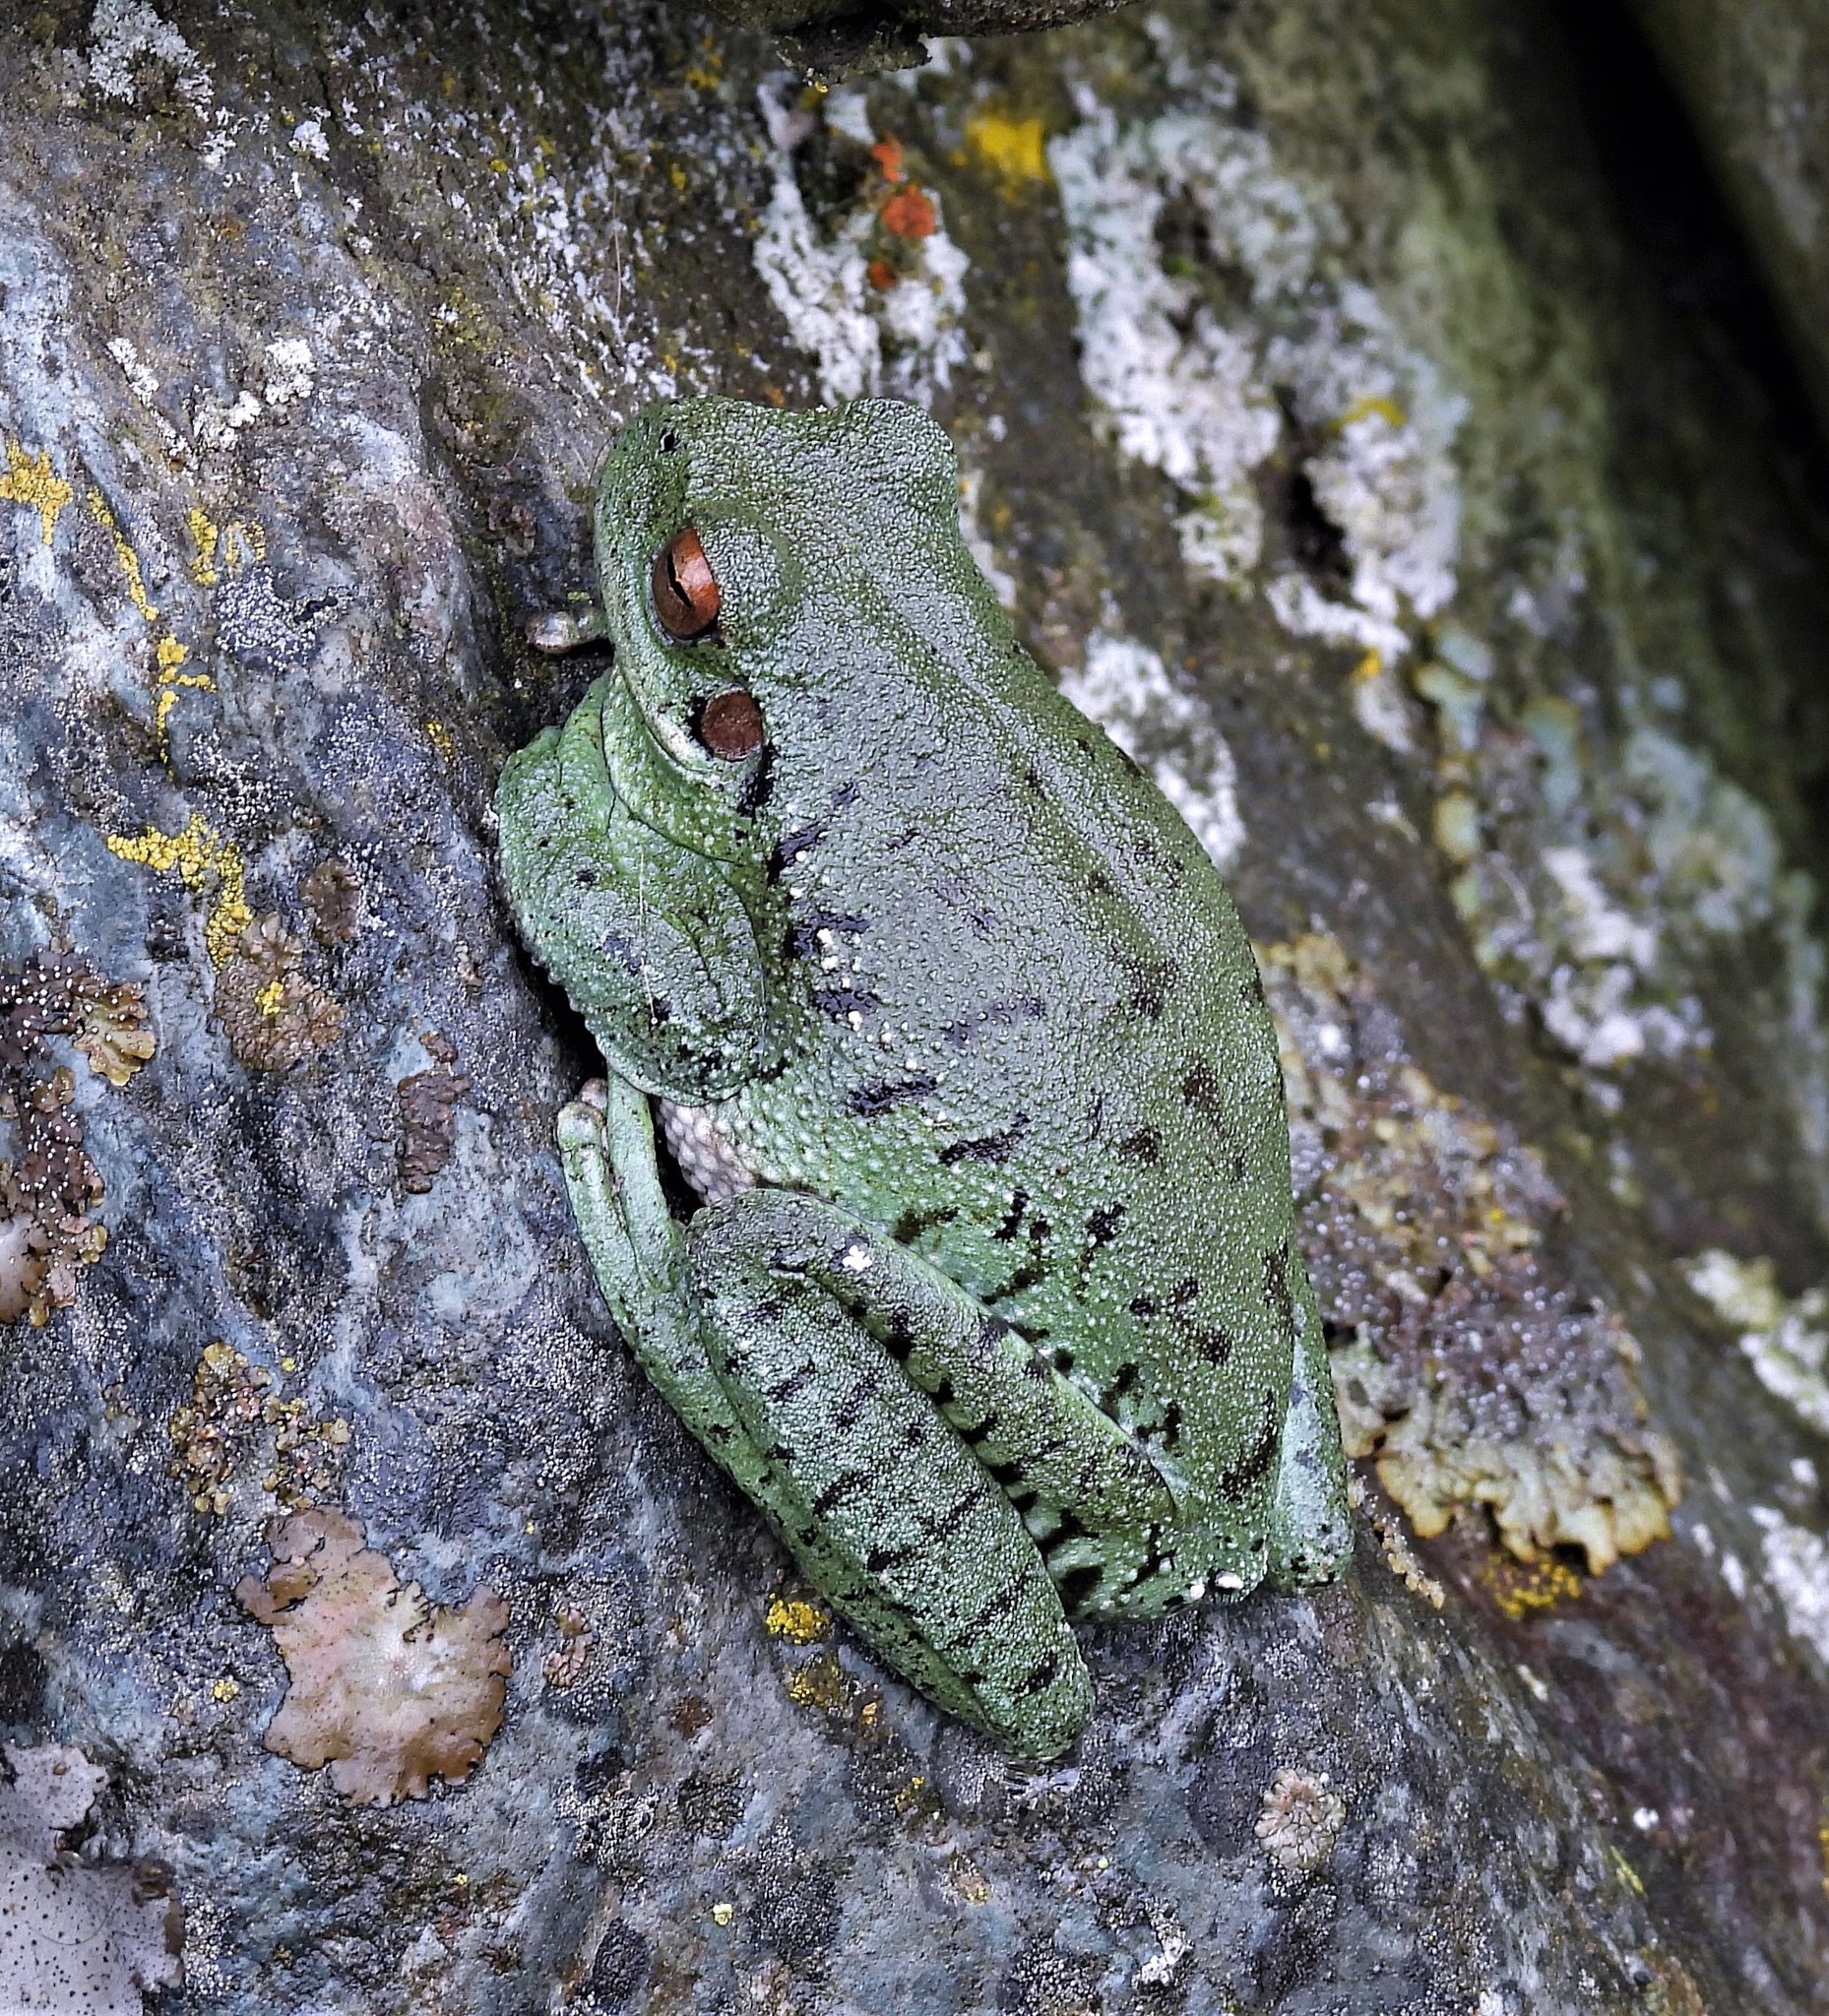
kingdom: Animalia
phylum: Chordata
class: Amphibia
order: Anura
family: Hylidae
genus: Boana
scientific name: Boana riojana
